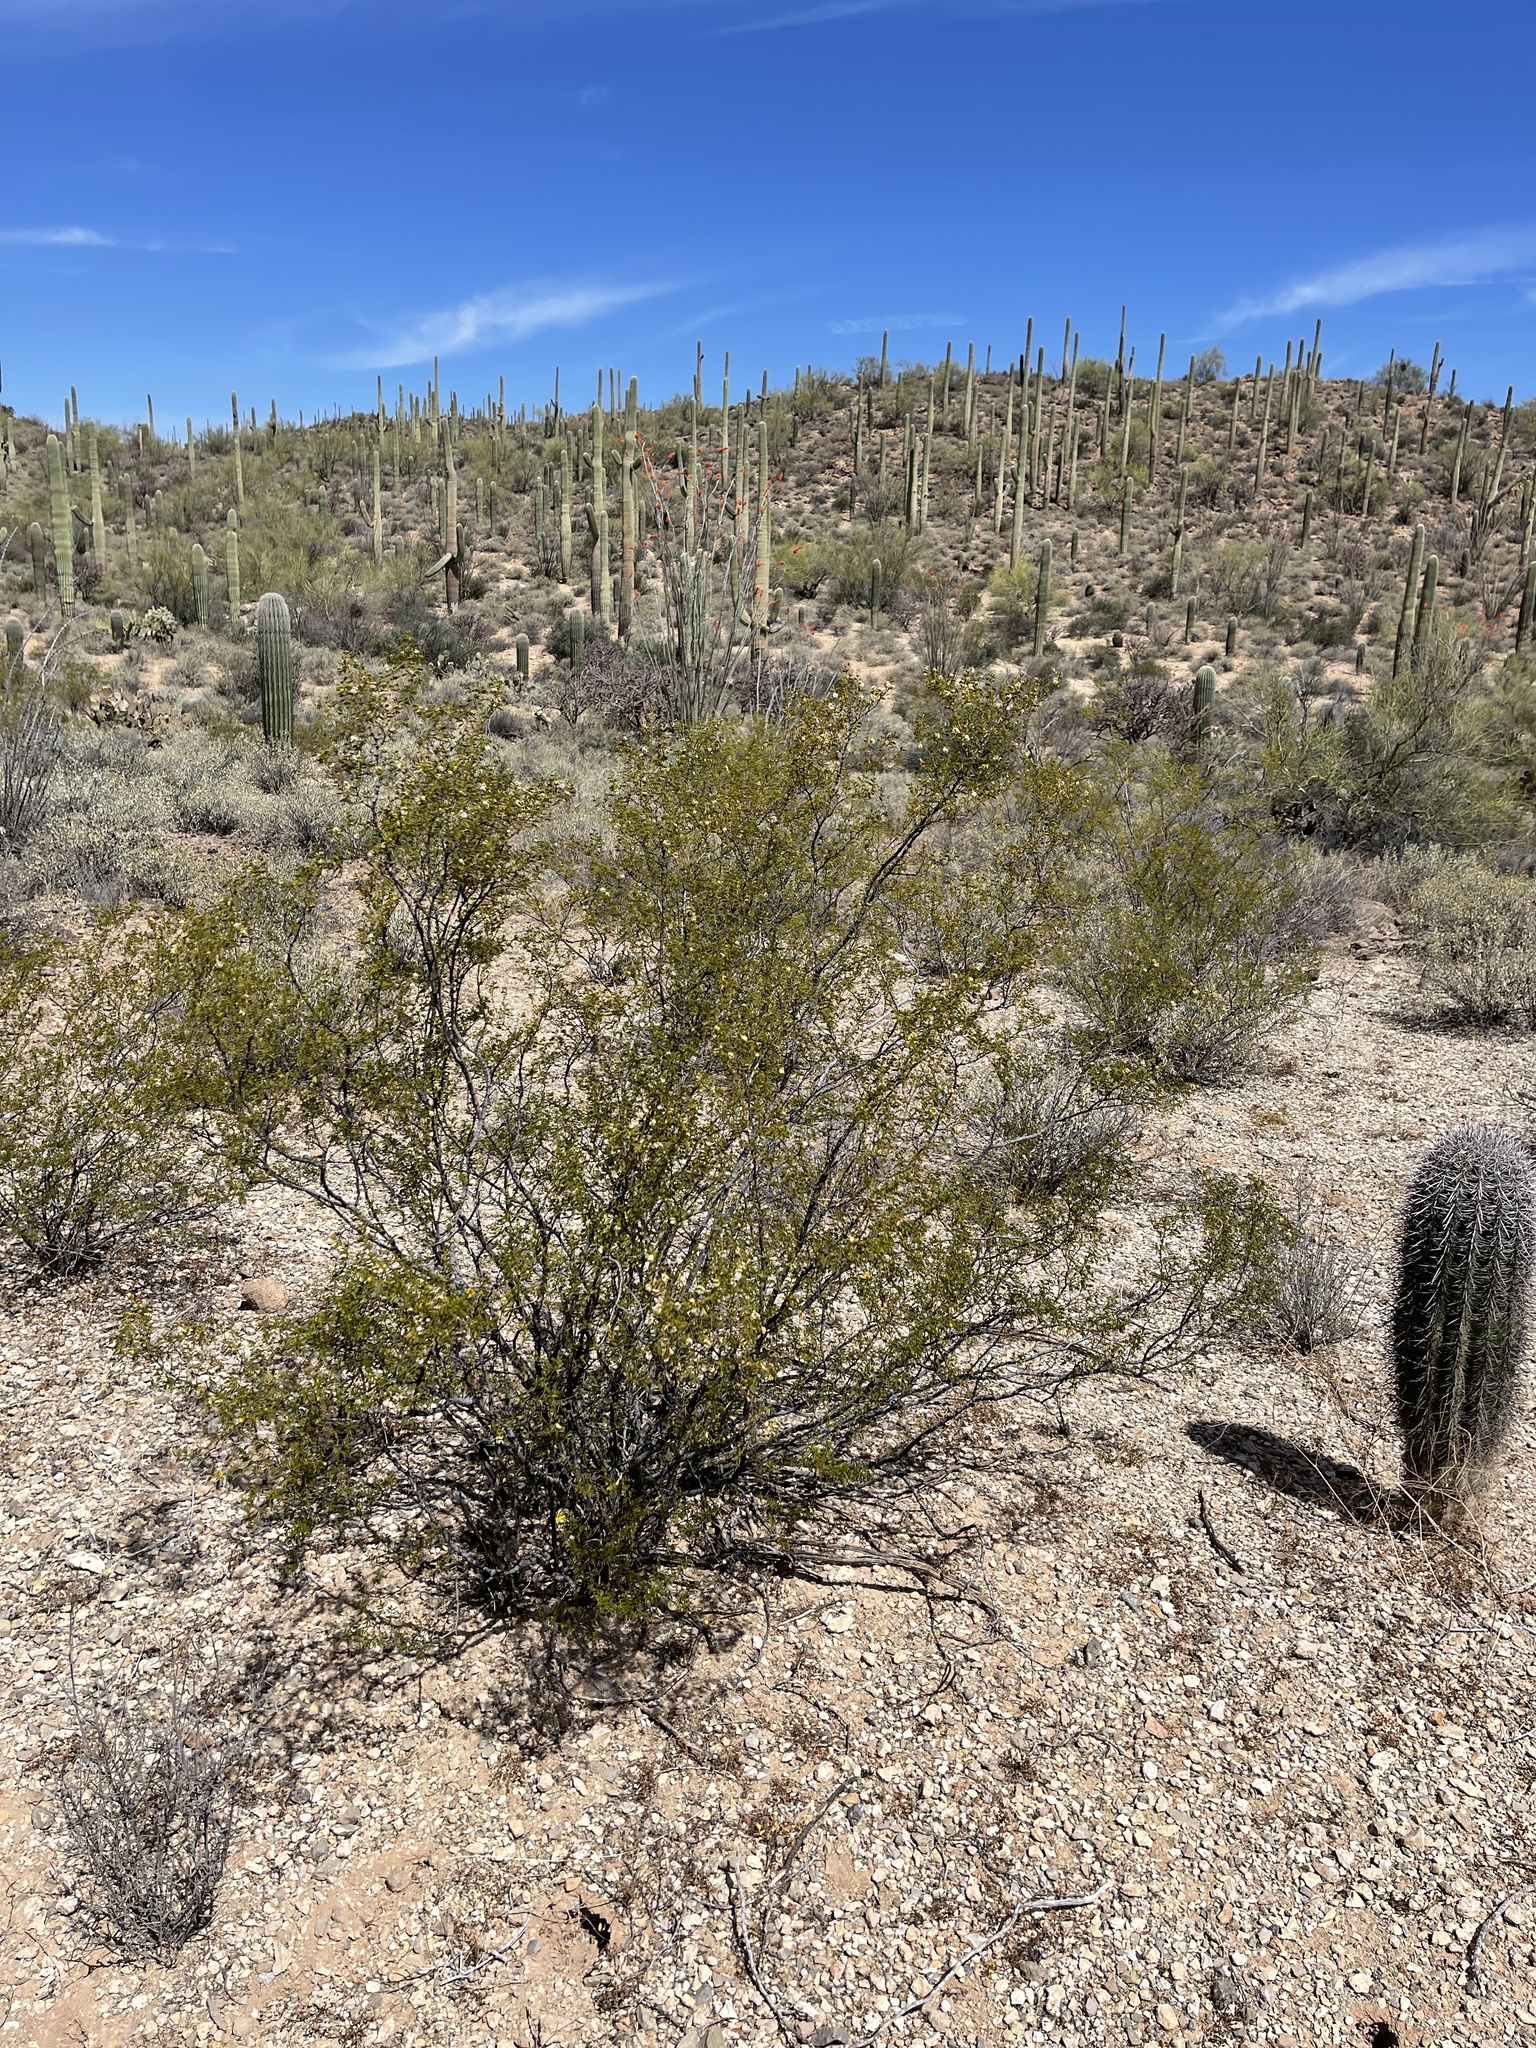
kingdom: Plantae
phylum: Tracheophyta
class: Magnoliopsida
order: Zygophyllales
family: Zygophyllaceae
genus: Larrea
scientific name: Larrea tridentata
